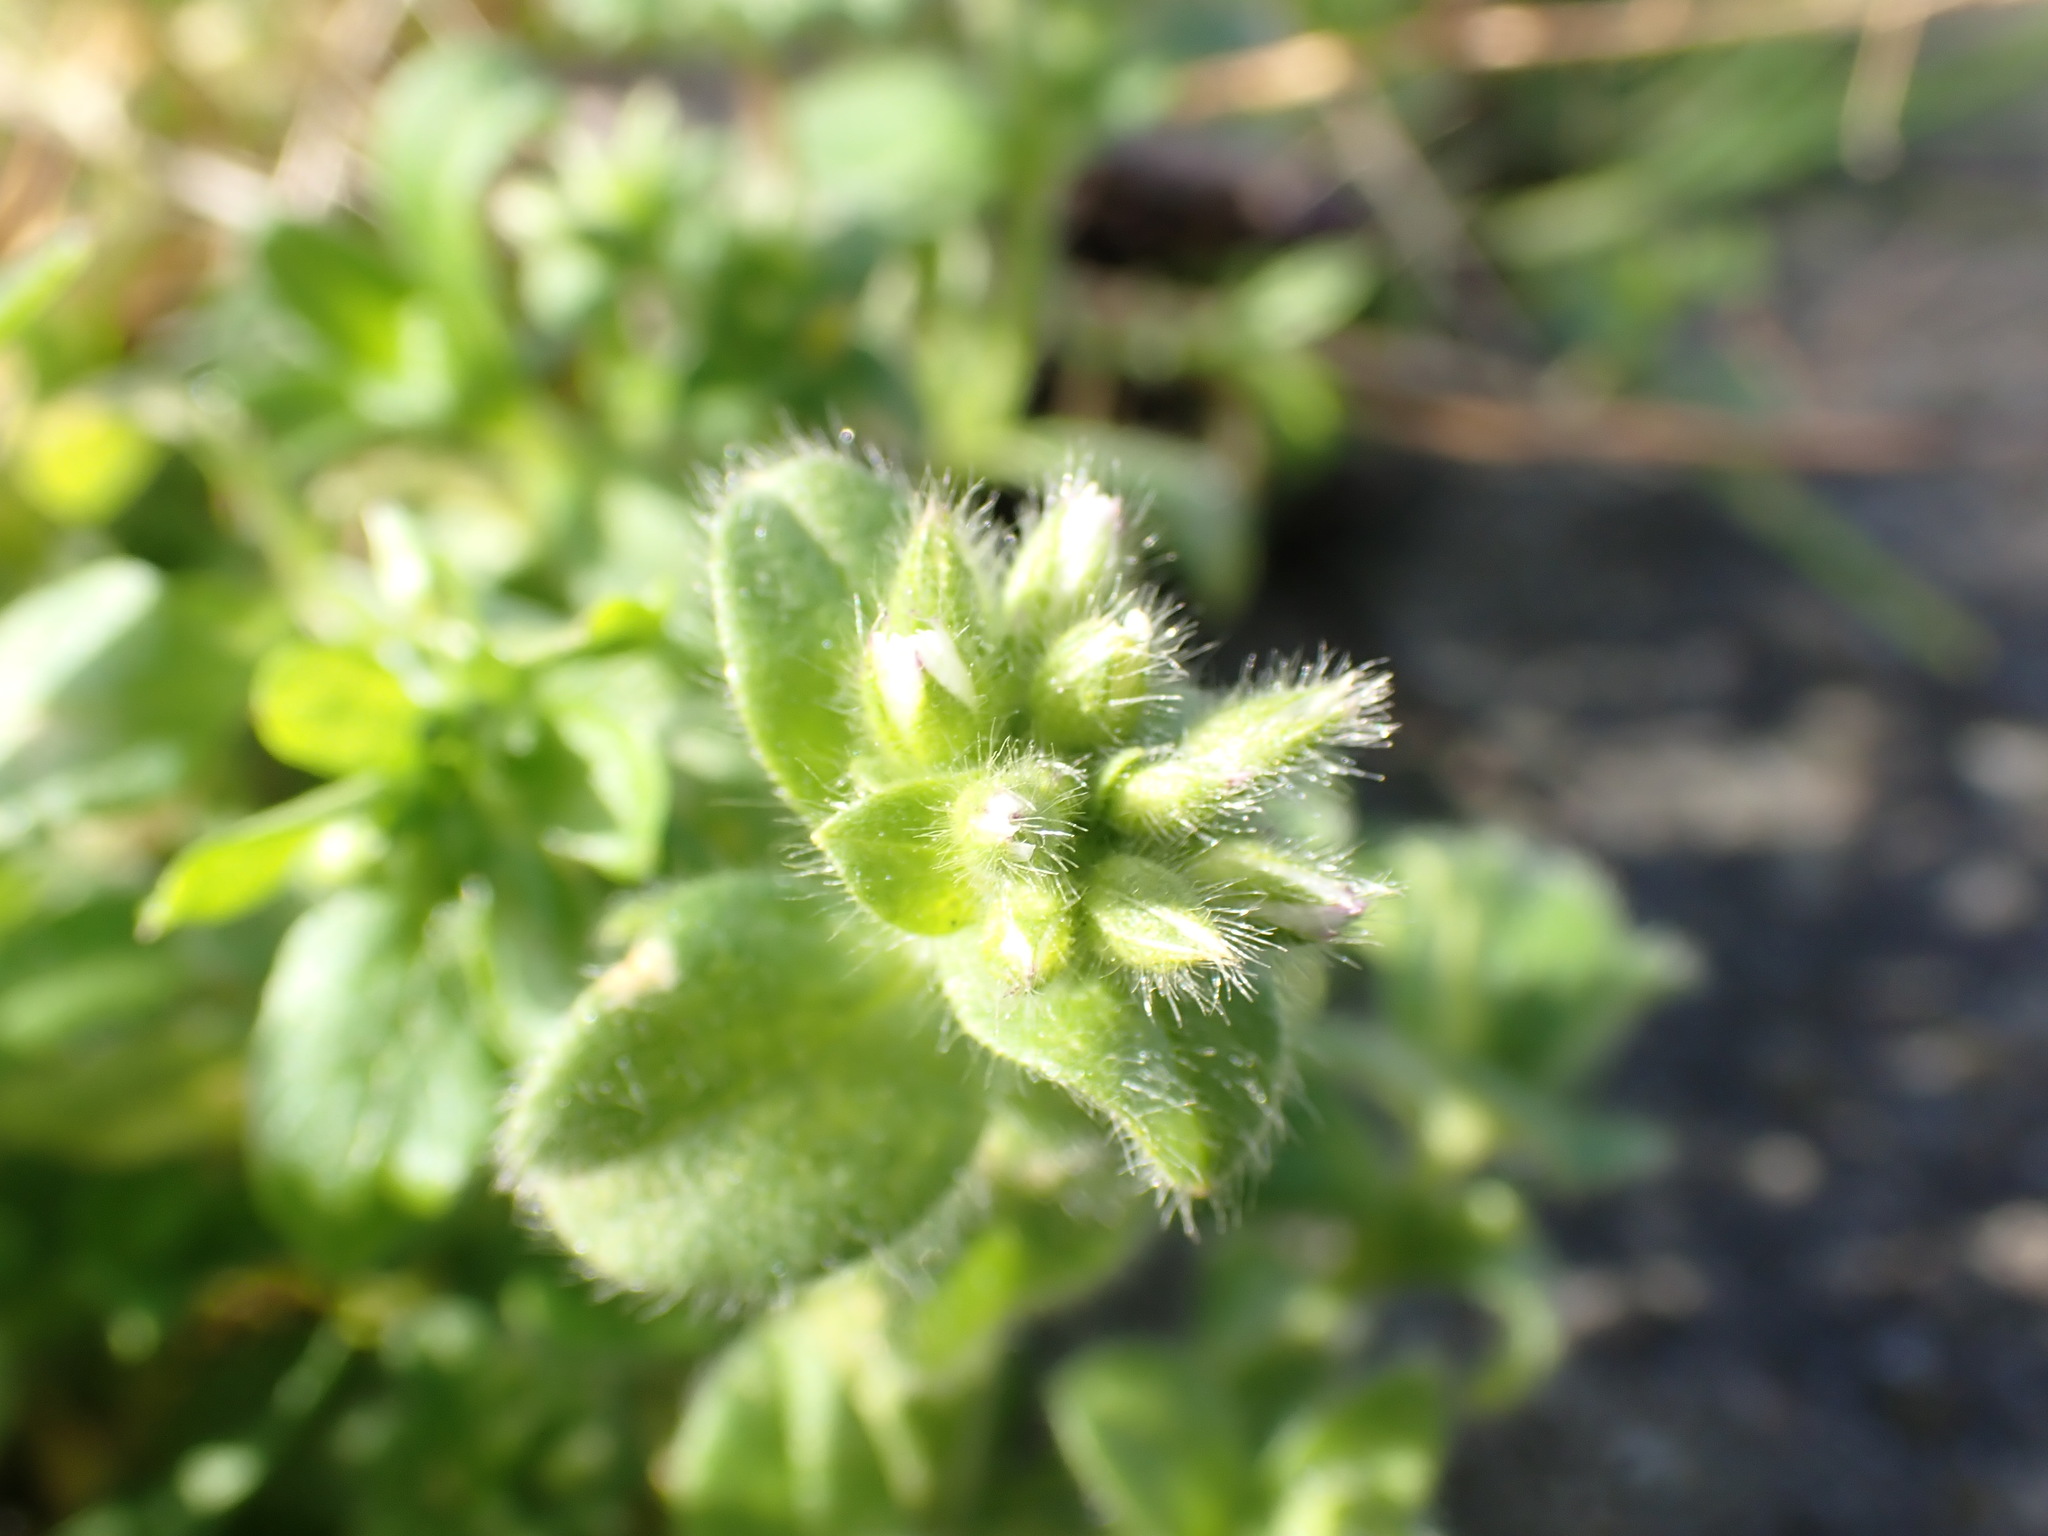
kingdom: Plantae
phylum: Tracheophyta
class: Magnoliopsida
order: Caryophyllales
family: Caryophyllaceae
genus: Cerastium
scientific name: Cerastium glomeratum
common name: Sticky chickweed
